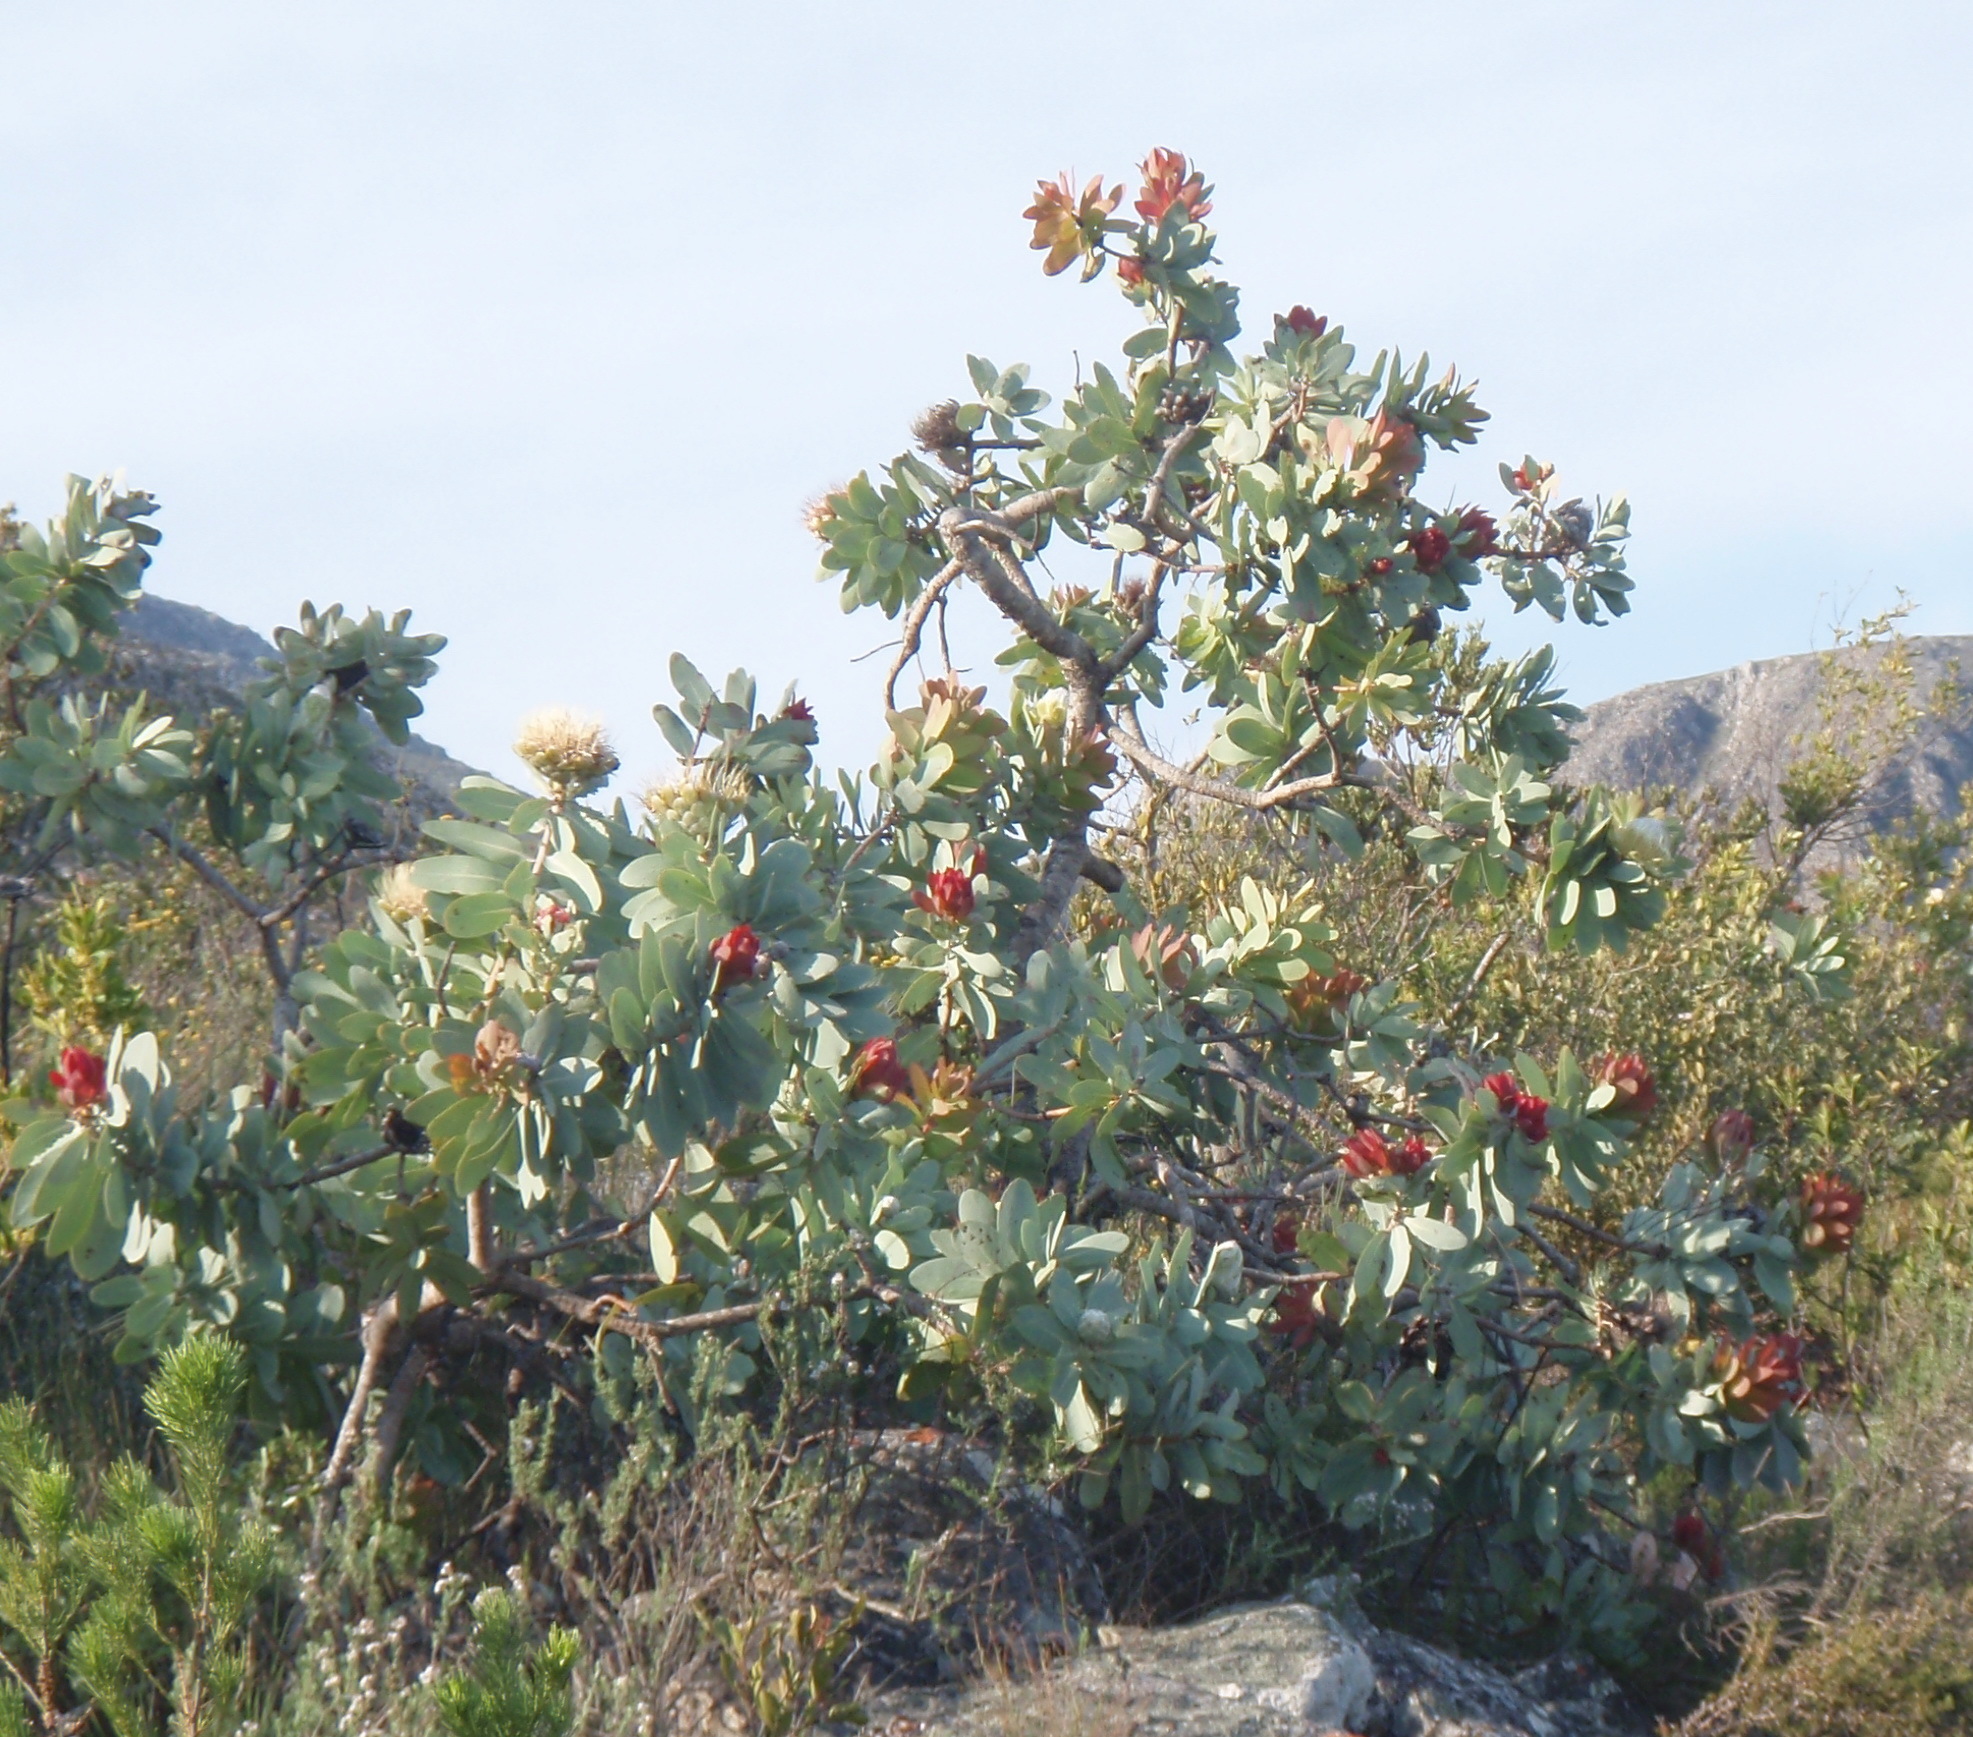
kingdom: Plantae
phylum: Tracheophyta
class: Magnoliopsida
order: Proteales
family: Proteaceae
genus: Protea
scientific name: Protea nitida
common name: Tree protea
